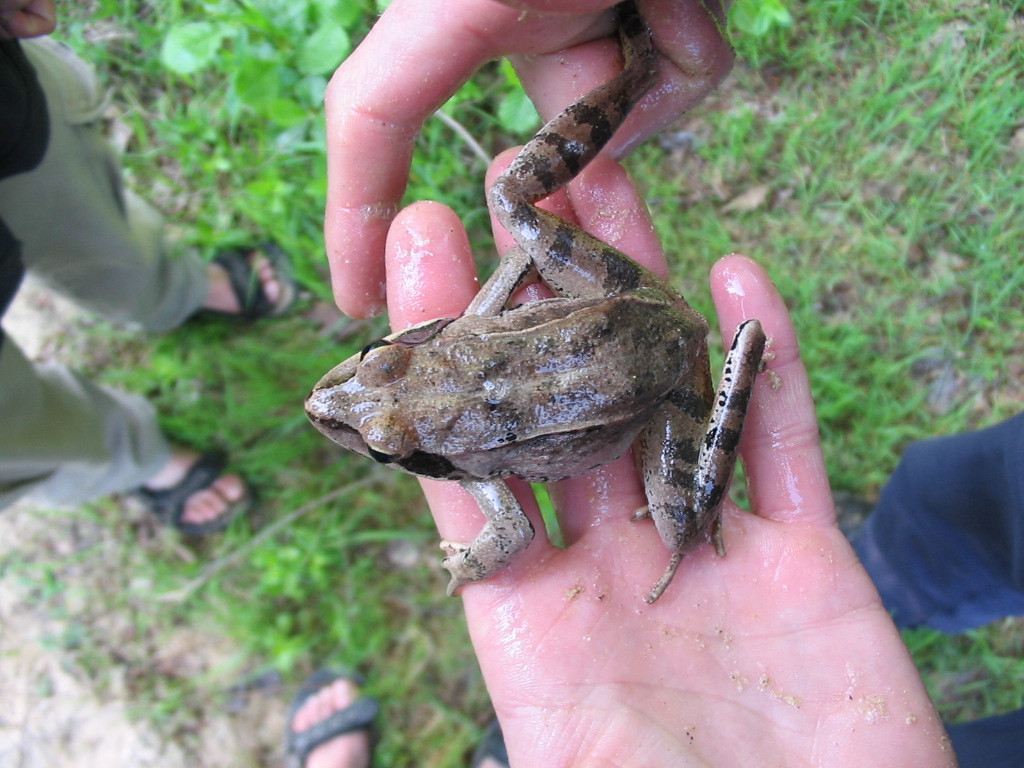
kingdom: Animalia
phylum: Chordata
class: Amphibia
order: Anura
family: Ranidae
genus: Rana
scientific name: Rana dalmatina
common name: Agile frog
